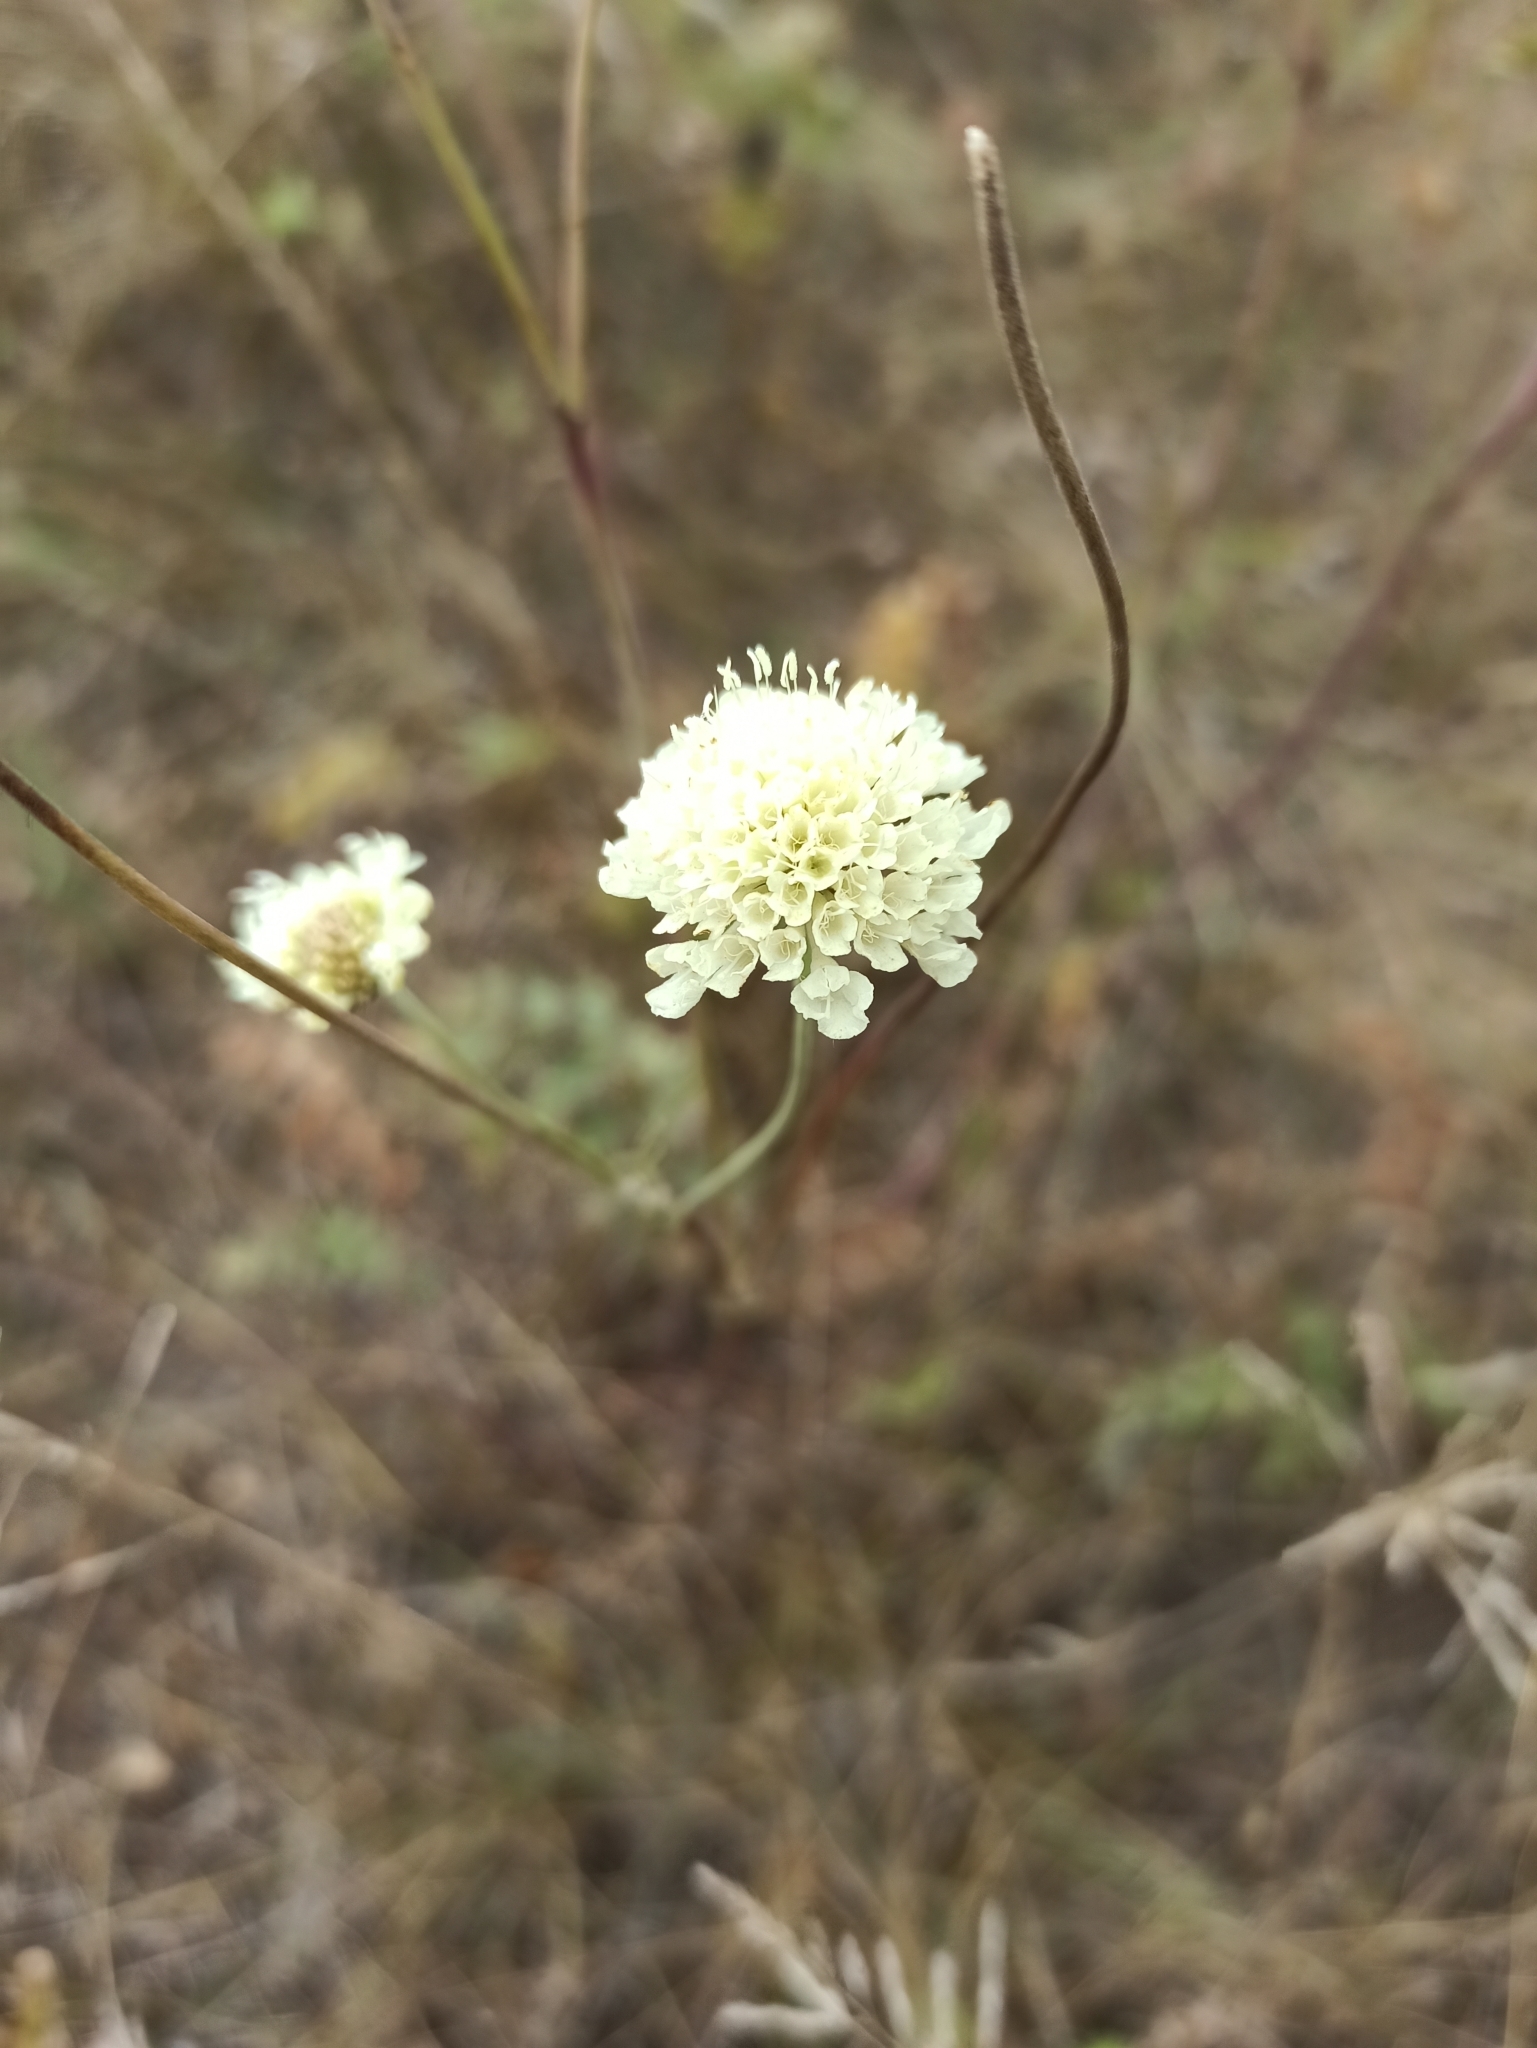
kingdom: Plantae
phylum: Tracheophyta
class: Magnoliopsida
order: Dipsacales
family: Caprifoliaceae
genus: Scabiosa
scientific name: Scabiosa ochroleuca
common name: Cream pincushions
